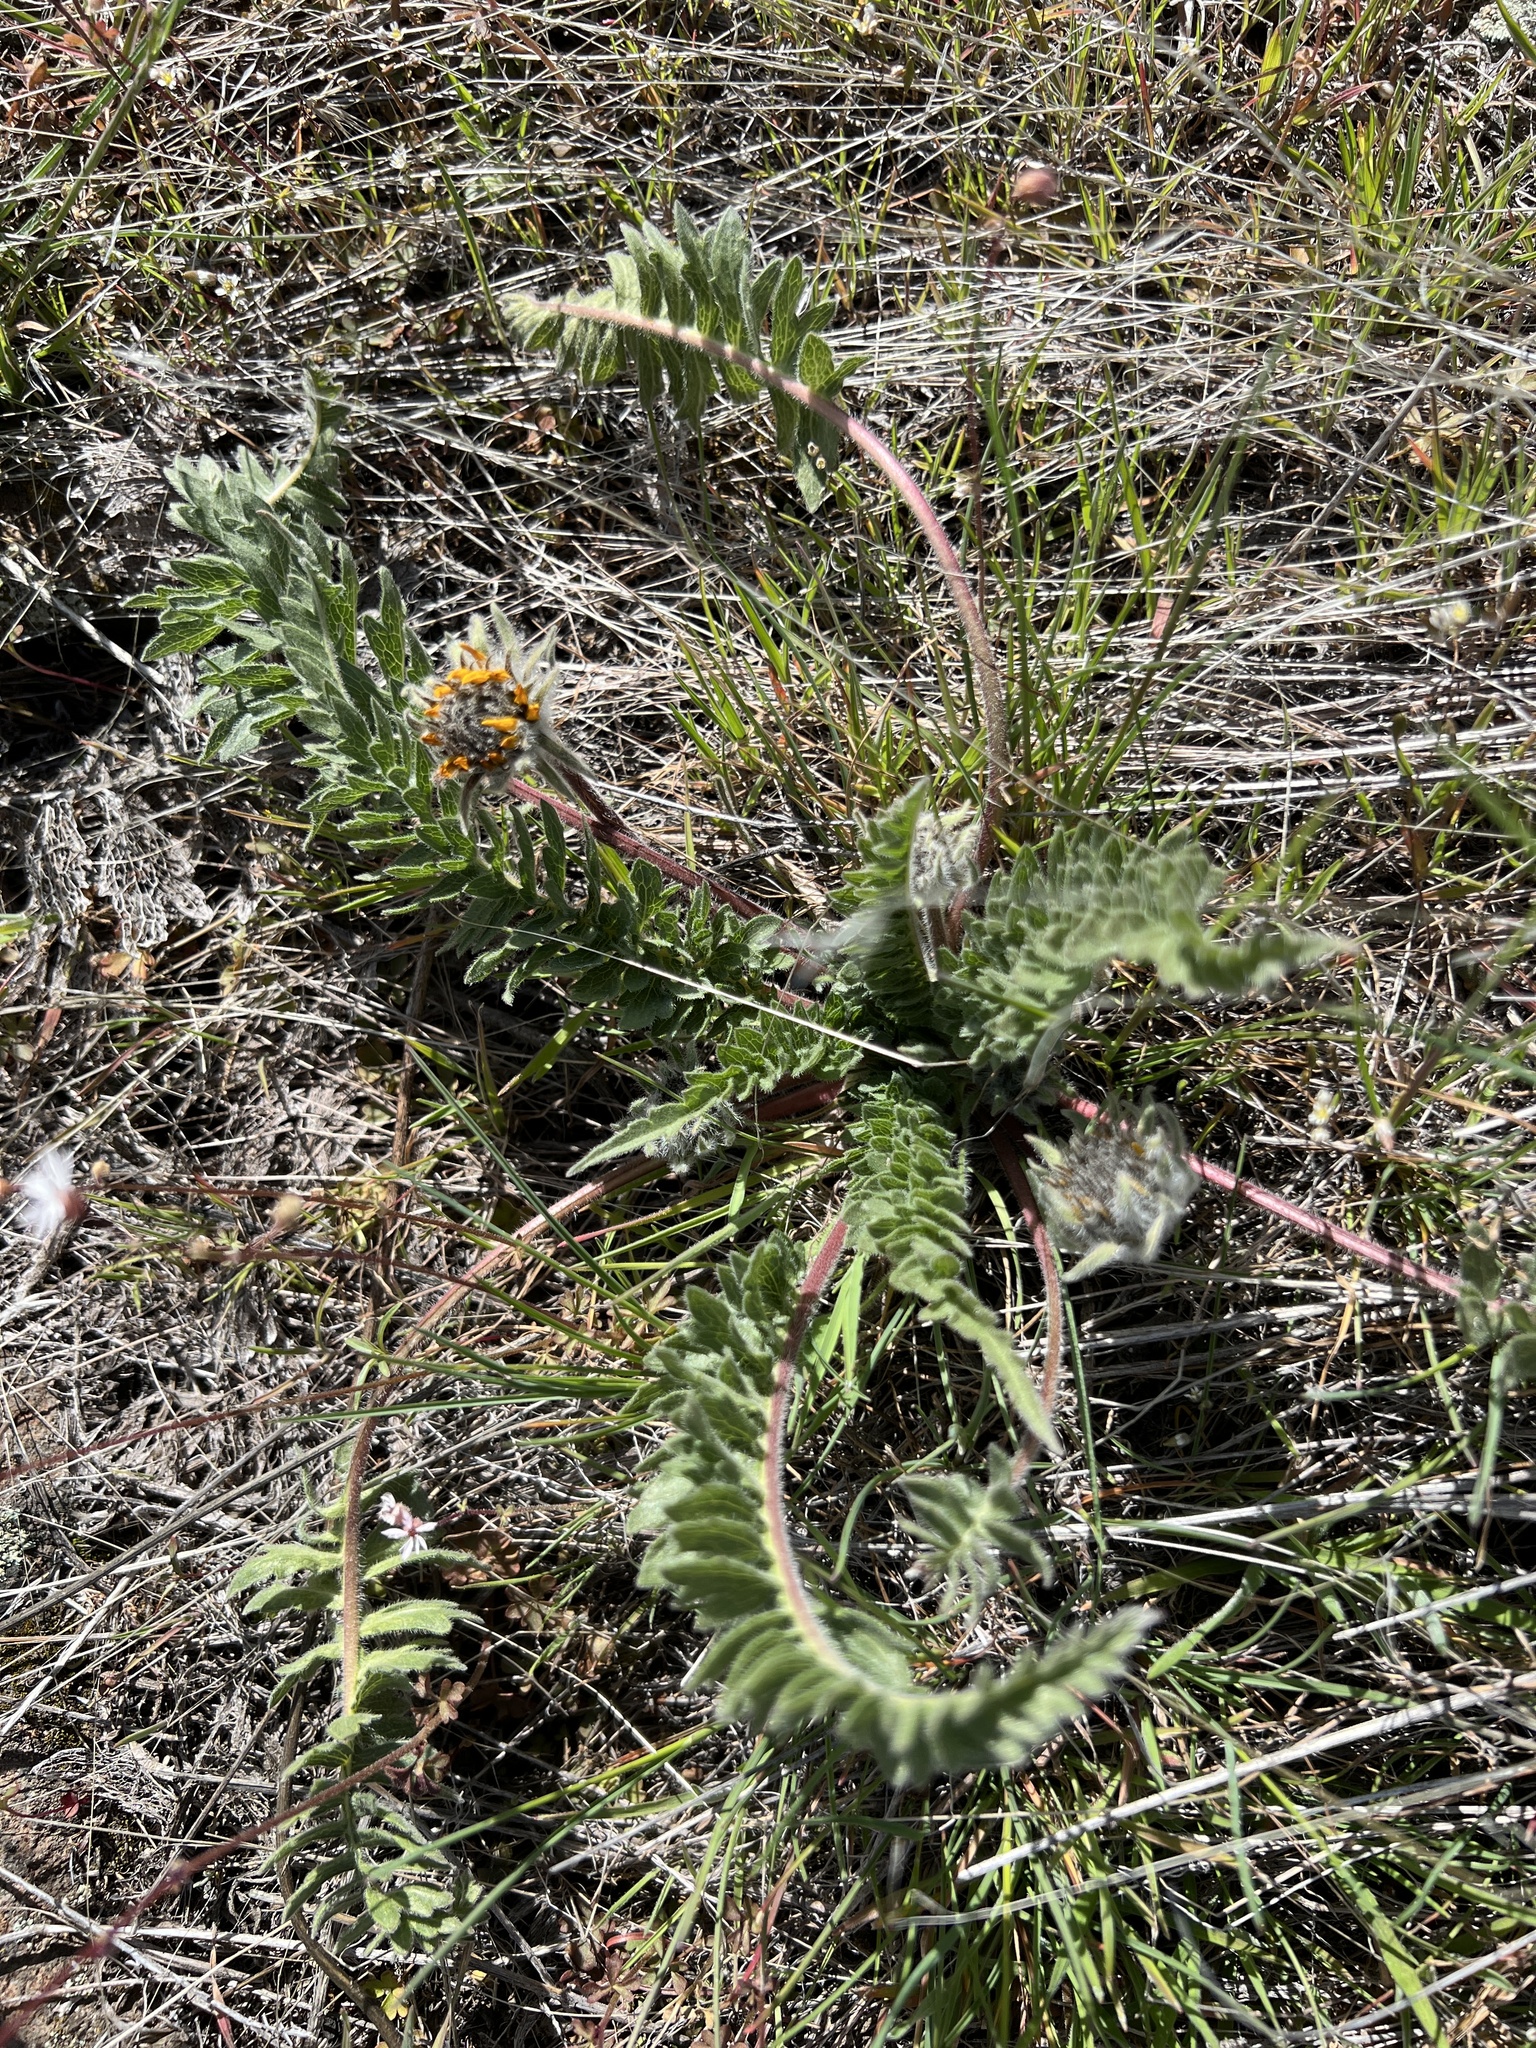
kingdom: Plantae
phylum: Tracheophyta
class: Magnoliopsida
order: Asterales
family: Asteraceae
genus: Balsamorhiza
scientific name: Balsamorhiza hookeri
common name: Hooker's balsamroot
